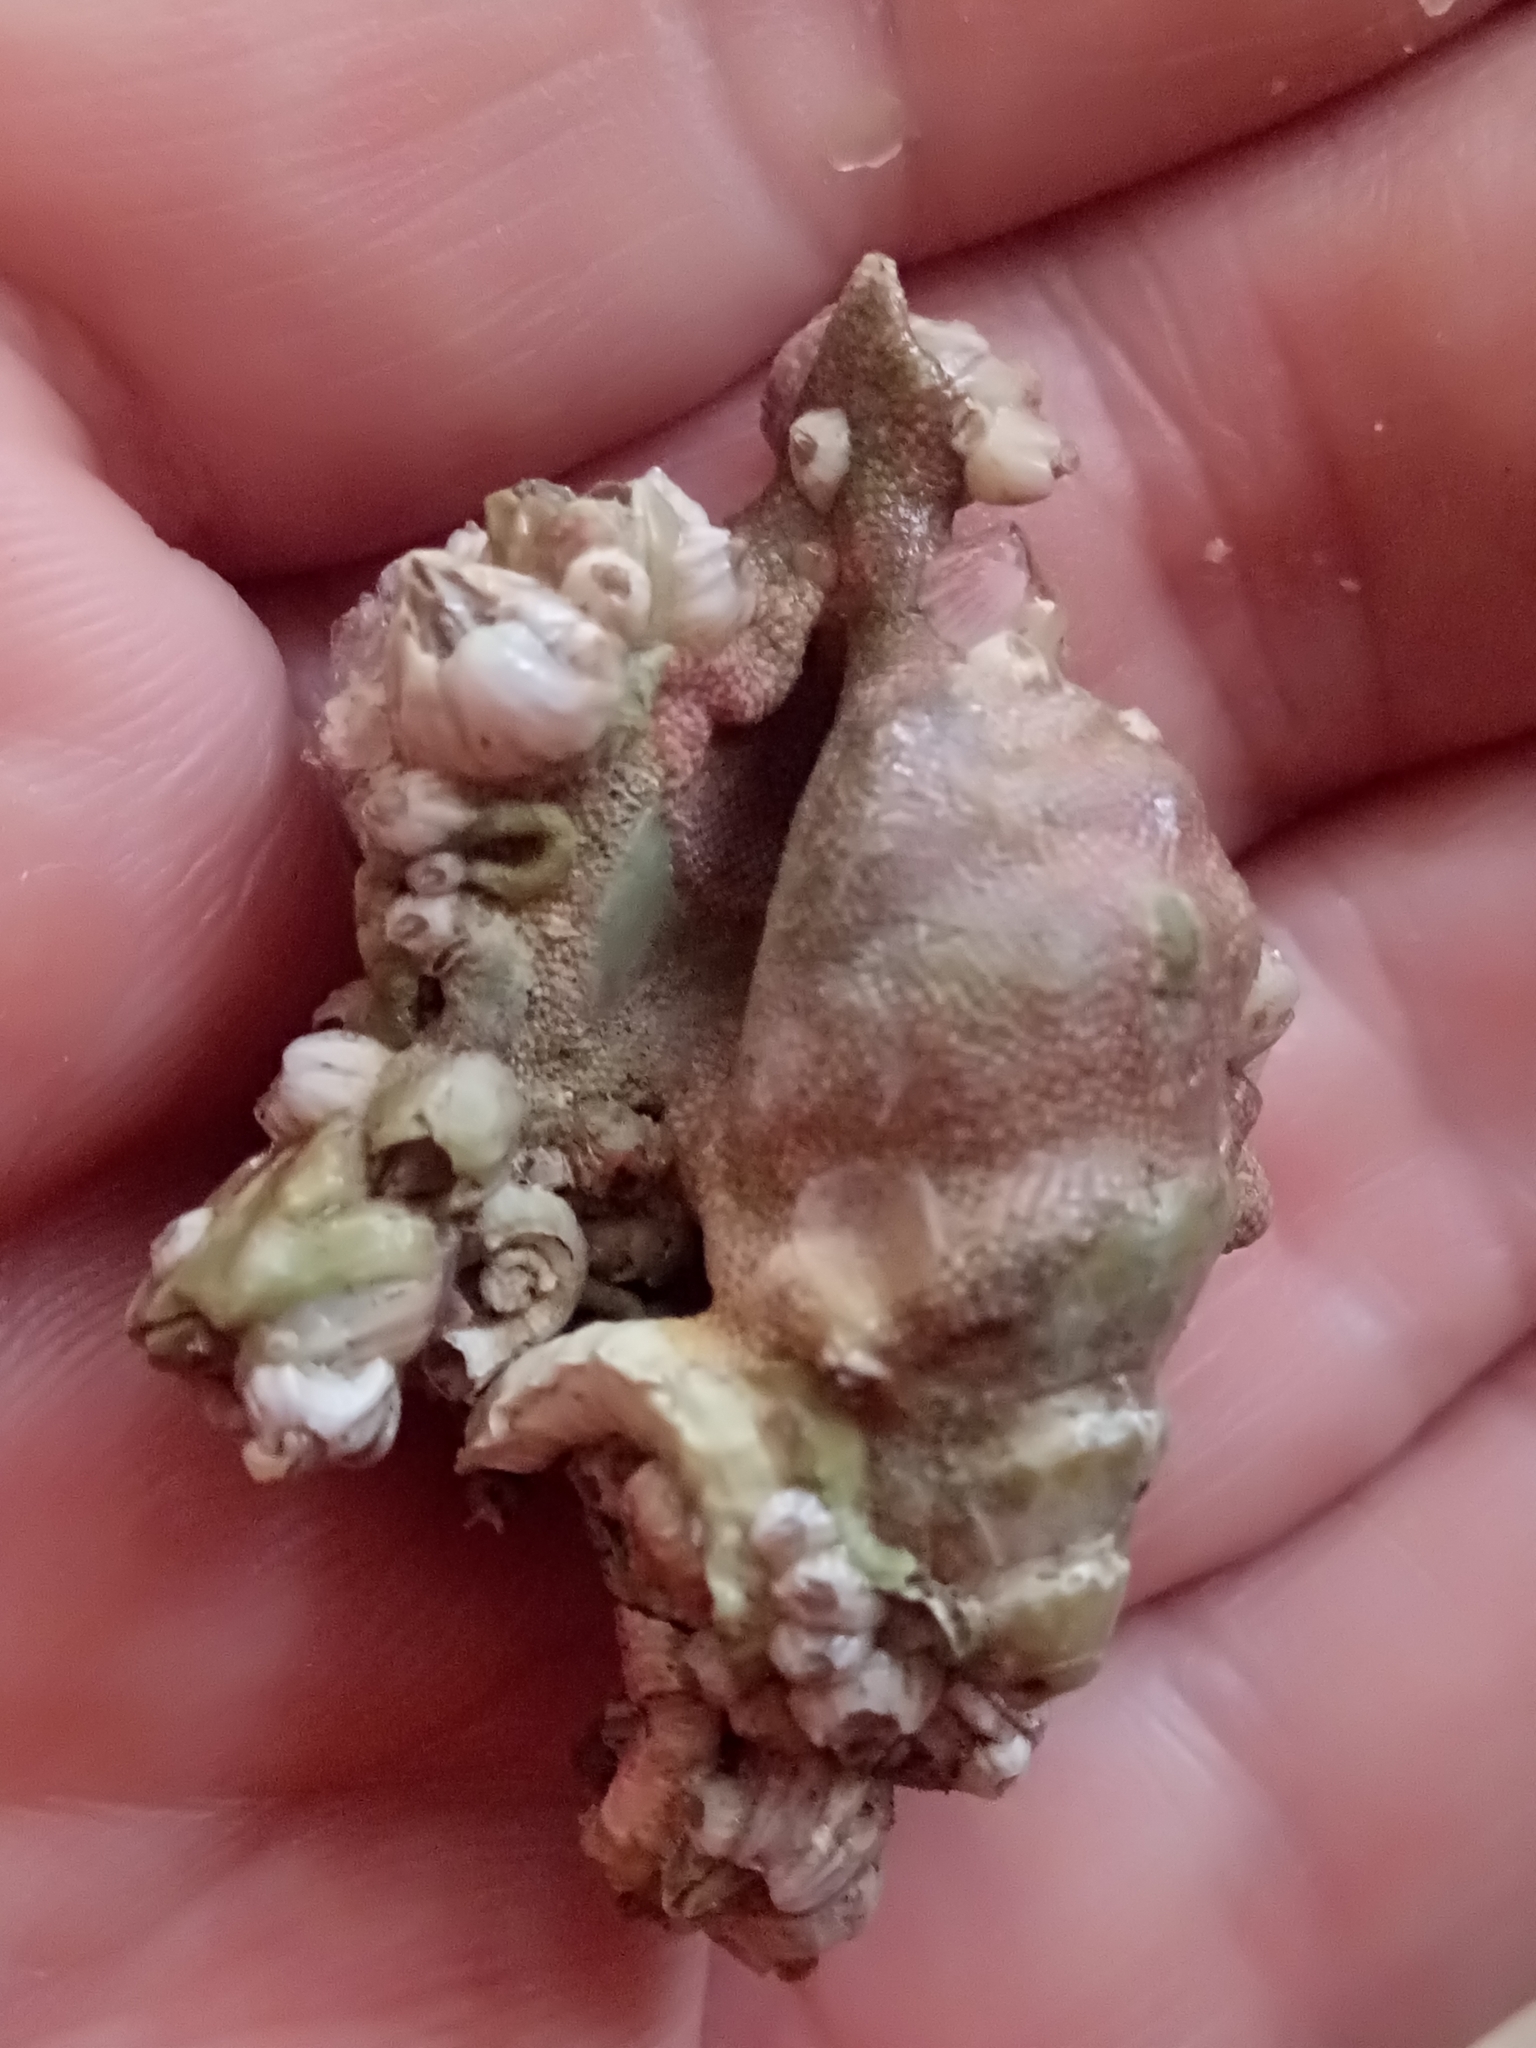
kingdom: Animalia
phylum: Mollusca
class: Gastropoda
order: Littorinimorpha
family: Aporrhaidae
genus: Aporrhais
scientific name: Aporrhais pespelecani
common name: Common pelican’s foot
